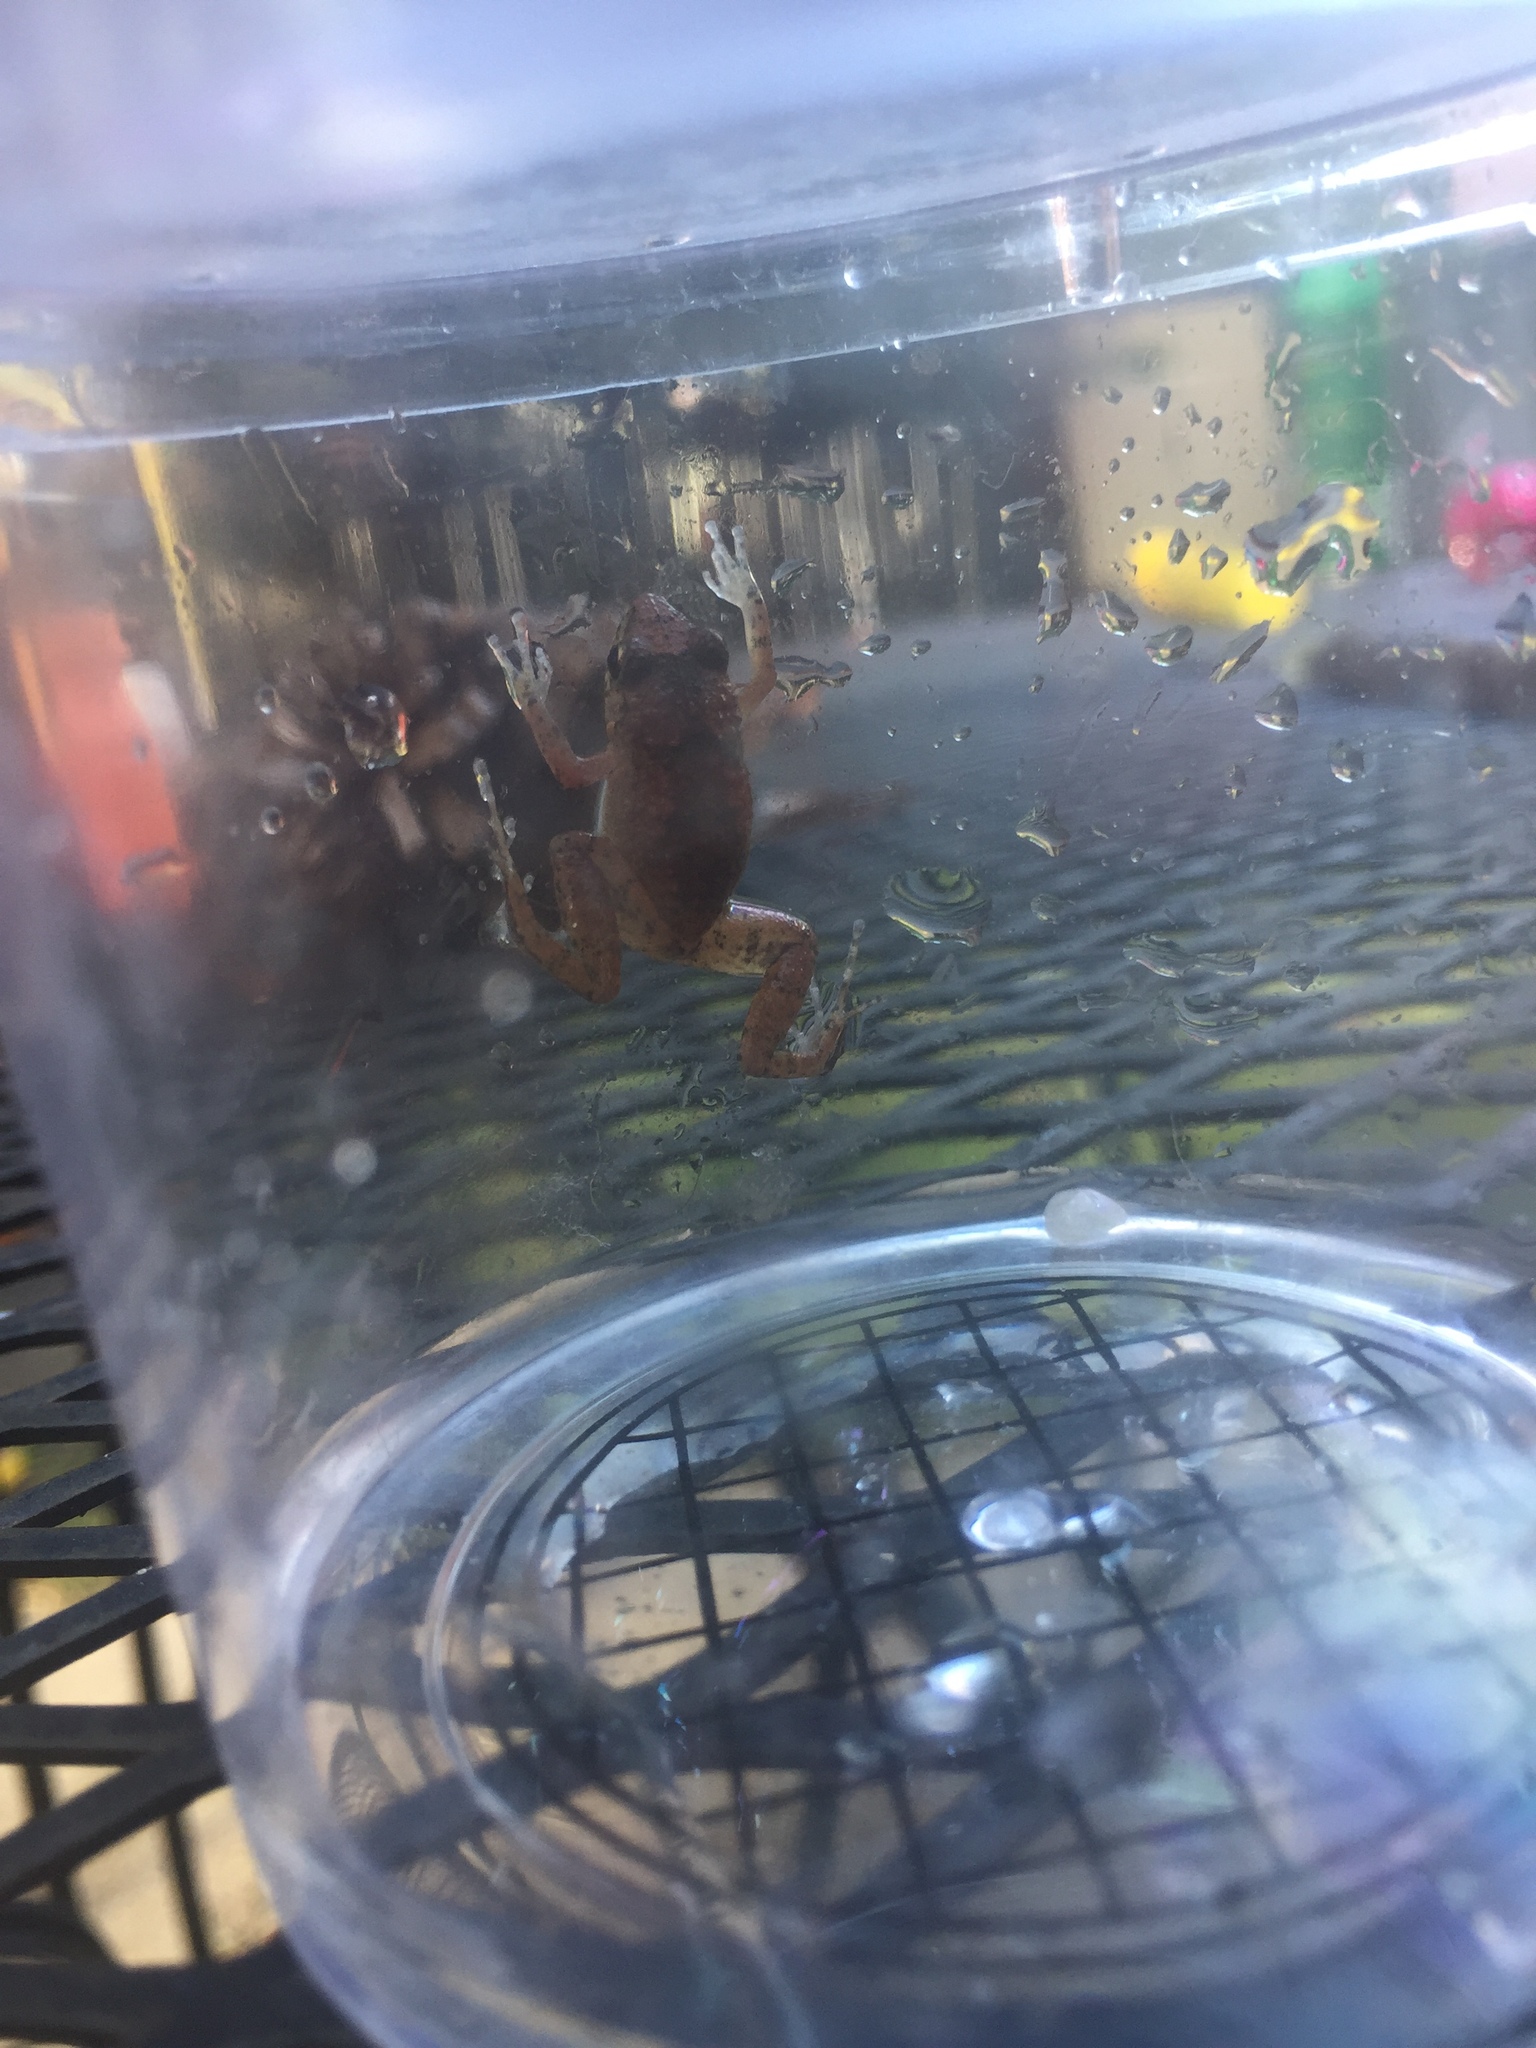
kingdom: Animalia
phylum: Chordata
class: Amphibia
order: Anura
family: Eleutherodactylidae
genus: Eleutherodactylus
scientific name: Eleutherodactylus planirostris
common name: Greenhouse frog
